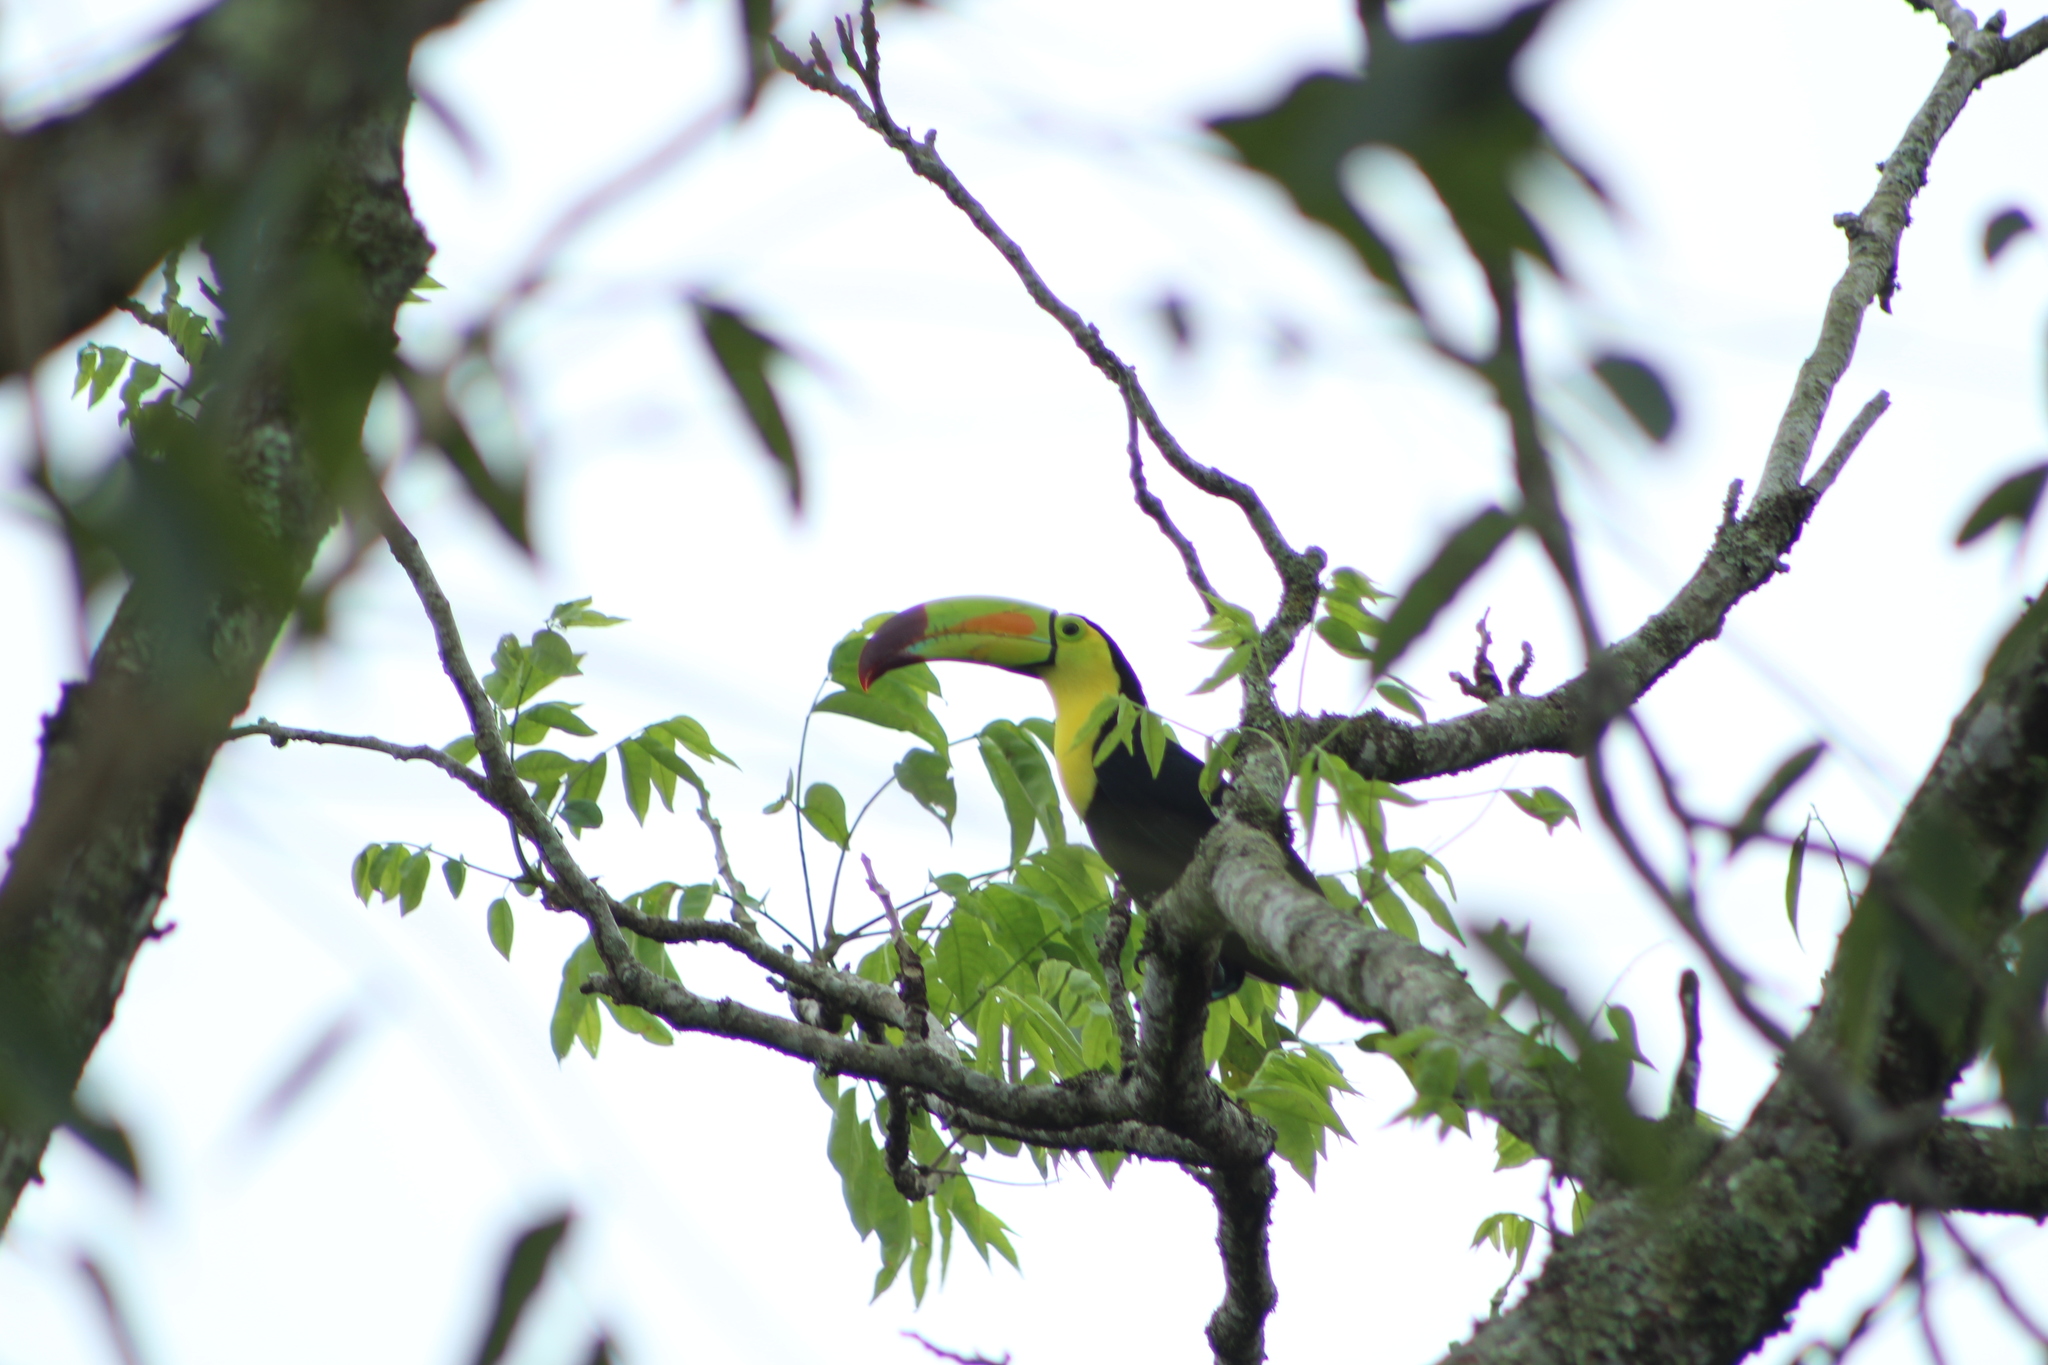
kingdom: Animalia
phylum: Chordata
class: Aves
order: Piciformes
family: Ramphastidae
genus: Ramphastos
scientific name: Ramphastos sulfuratus
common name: Keel-billed toucan
